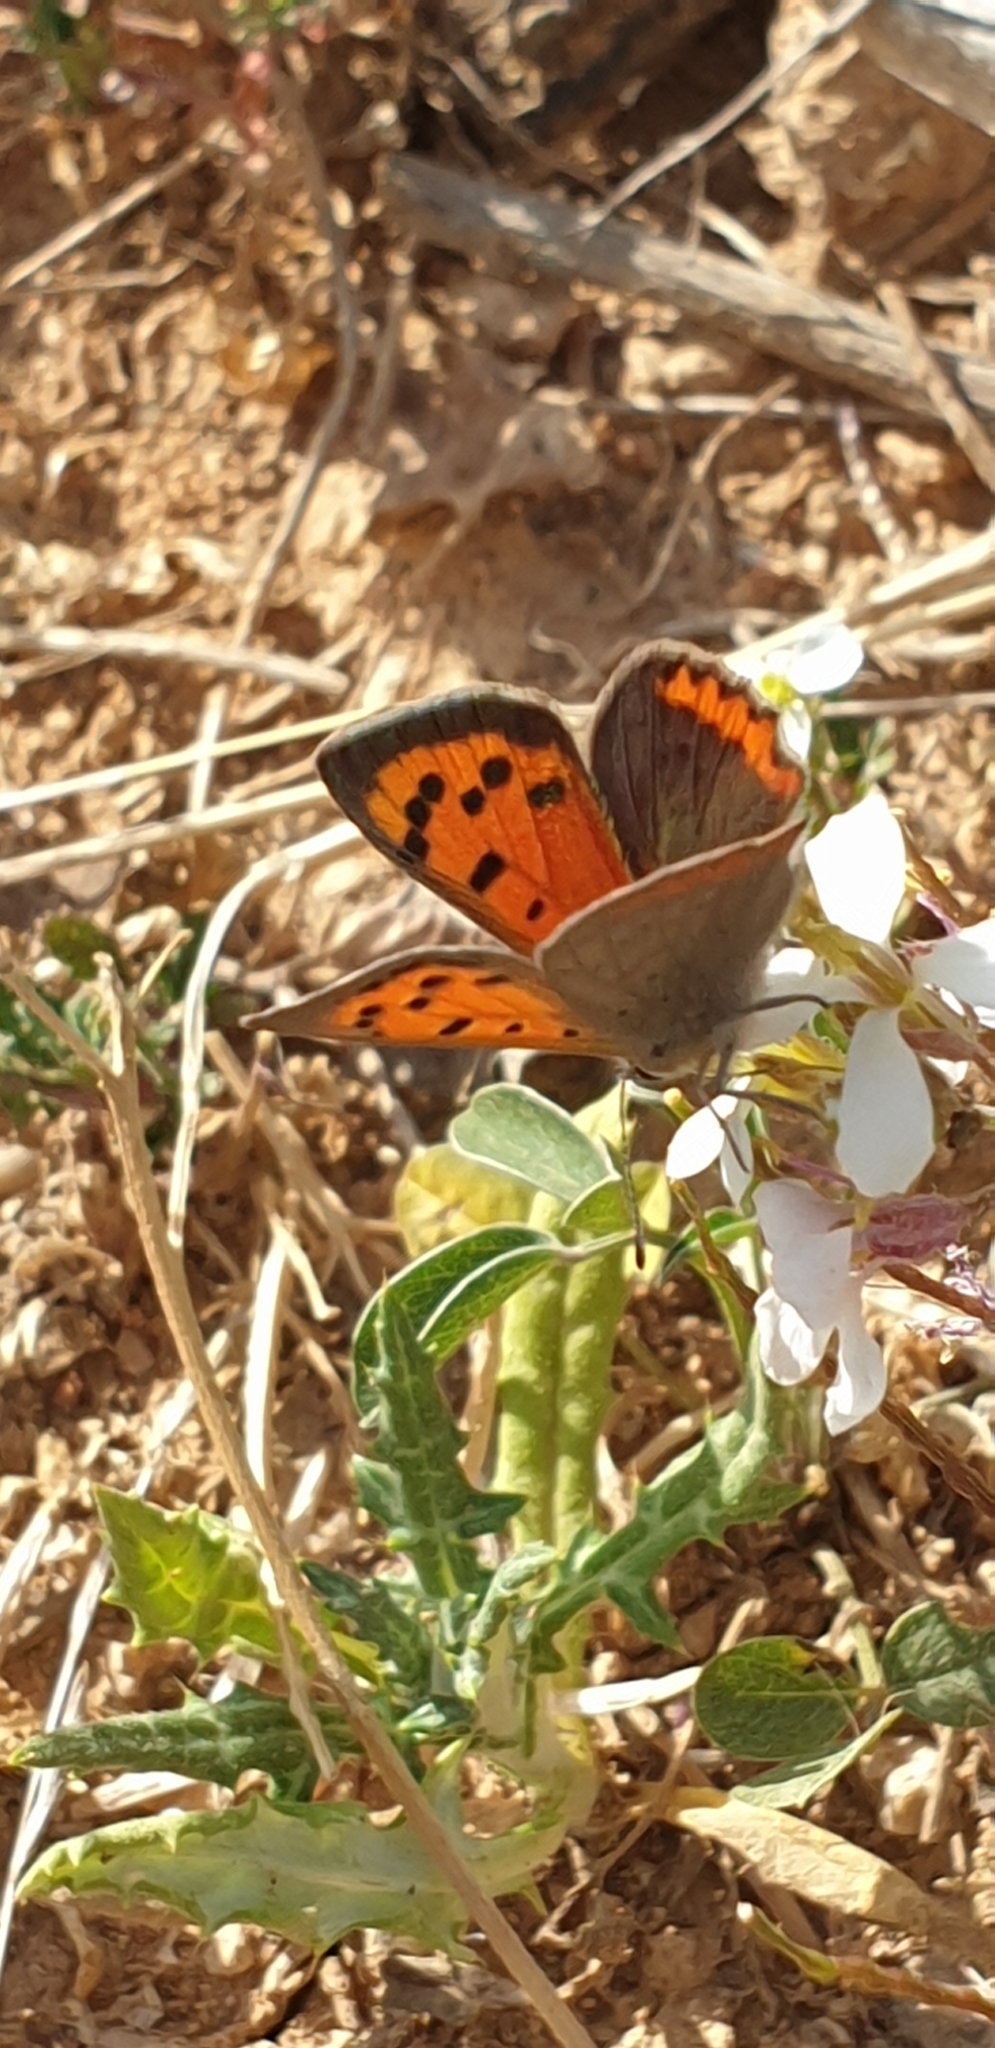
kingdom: Animalia
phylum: Arthropoda
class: Insecta
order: Lepidoptera
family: Lycaenidae
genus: Lycaena
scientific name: Lycaena phlaeas
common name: Small copper
